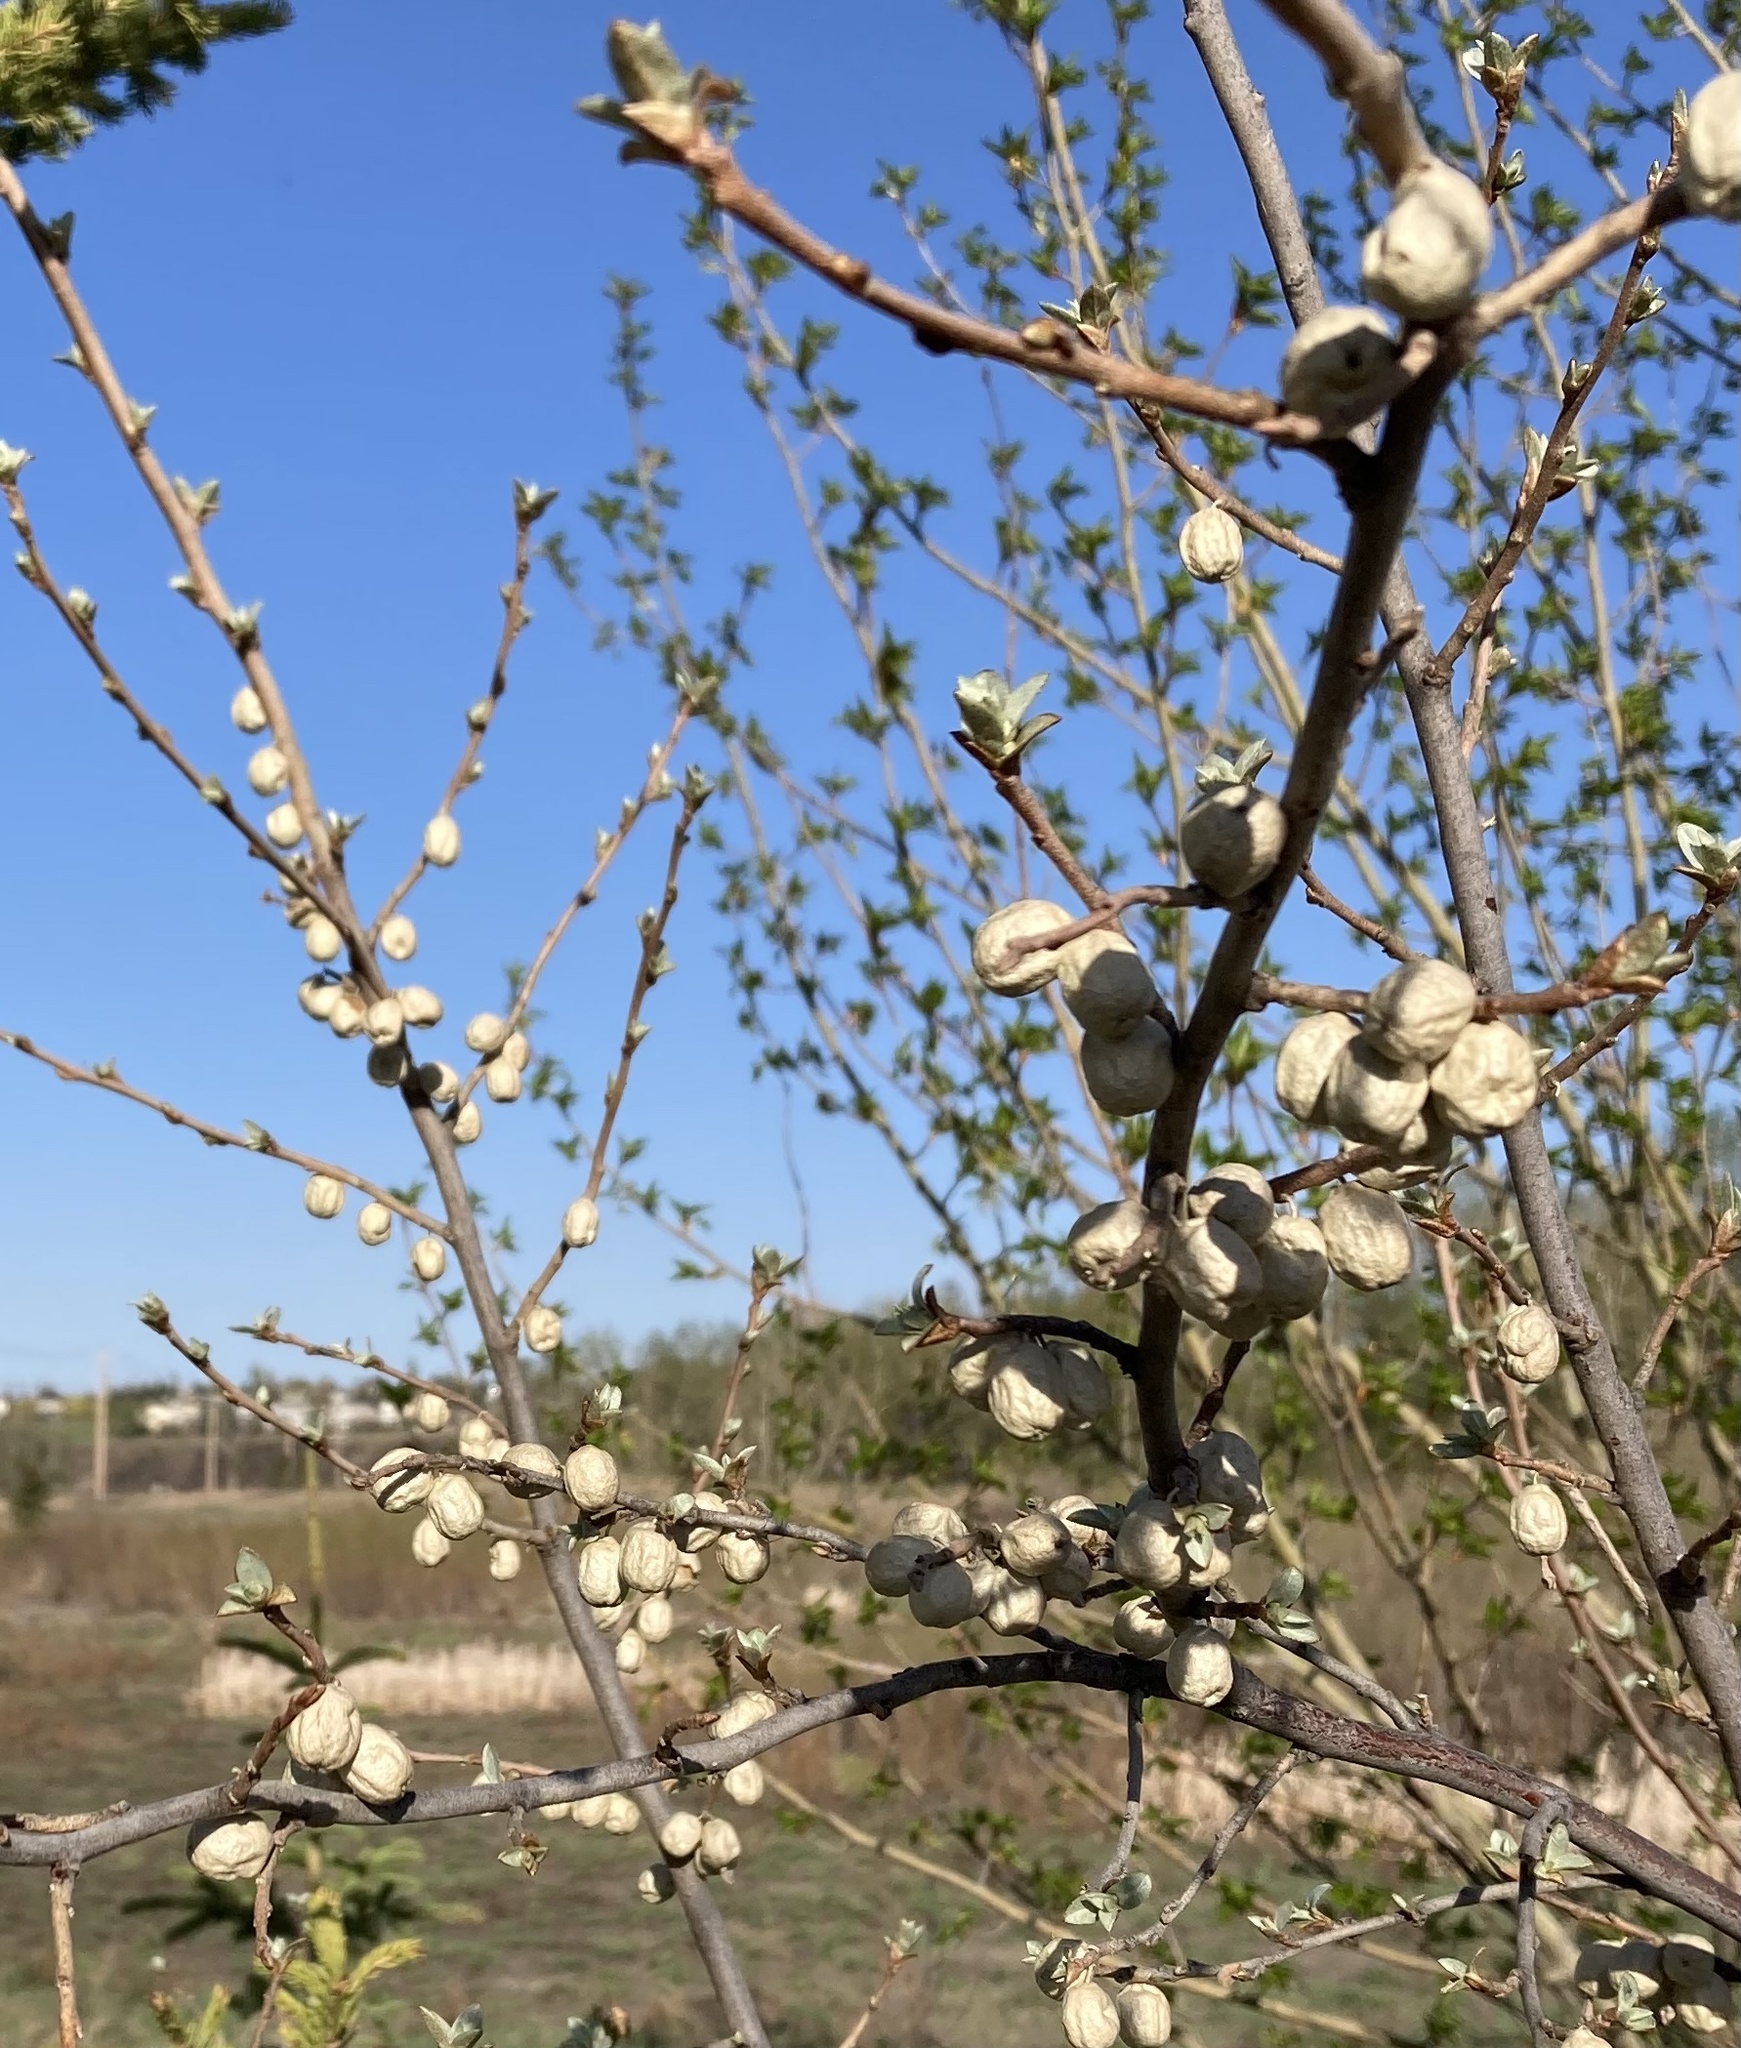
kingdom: Plantae
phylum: Tracheophyta
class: Magnoliopsida
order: Rosales
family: Elaeagnaceae
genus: Elaeagnus
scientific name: Elaeagnus commutata
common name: Silverberry
